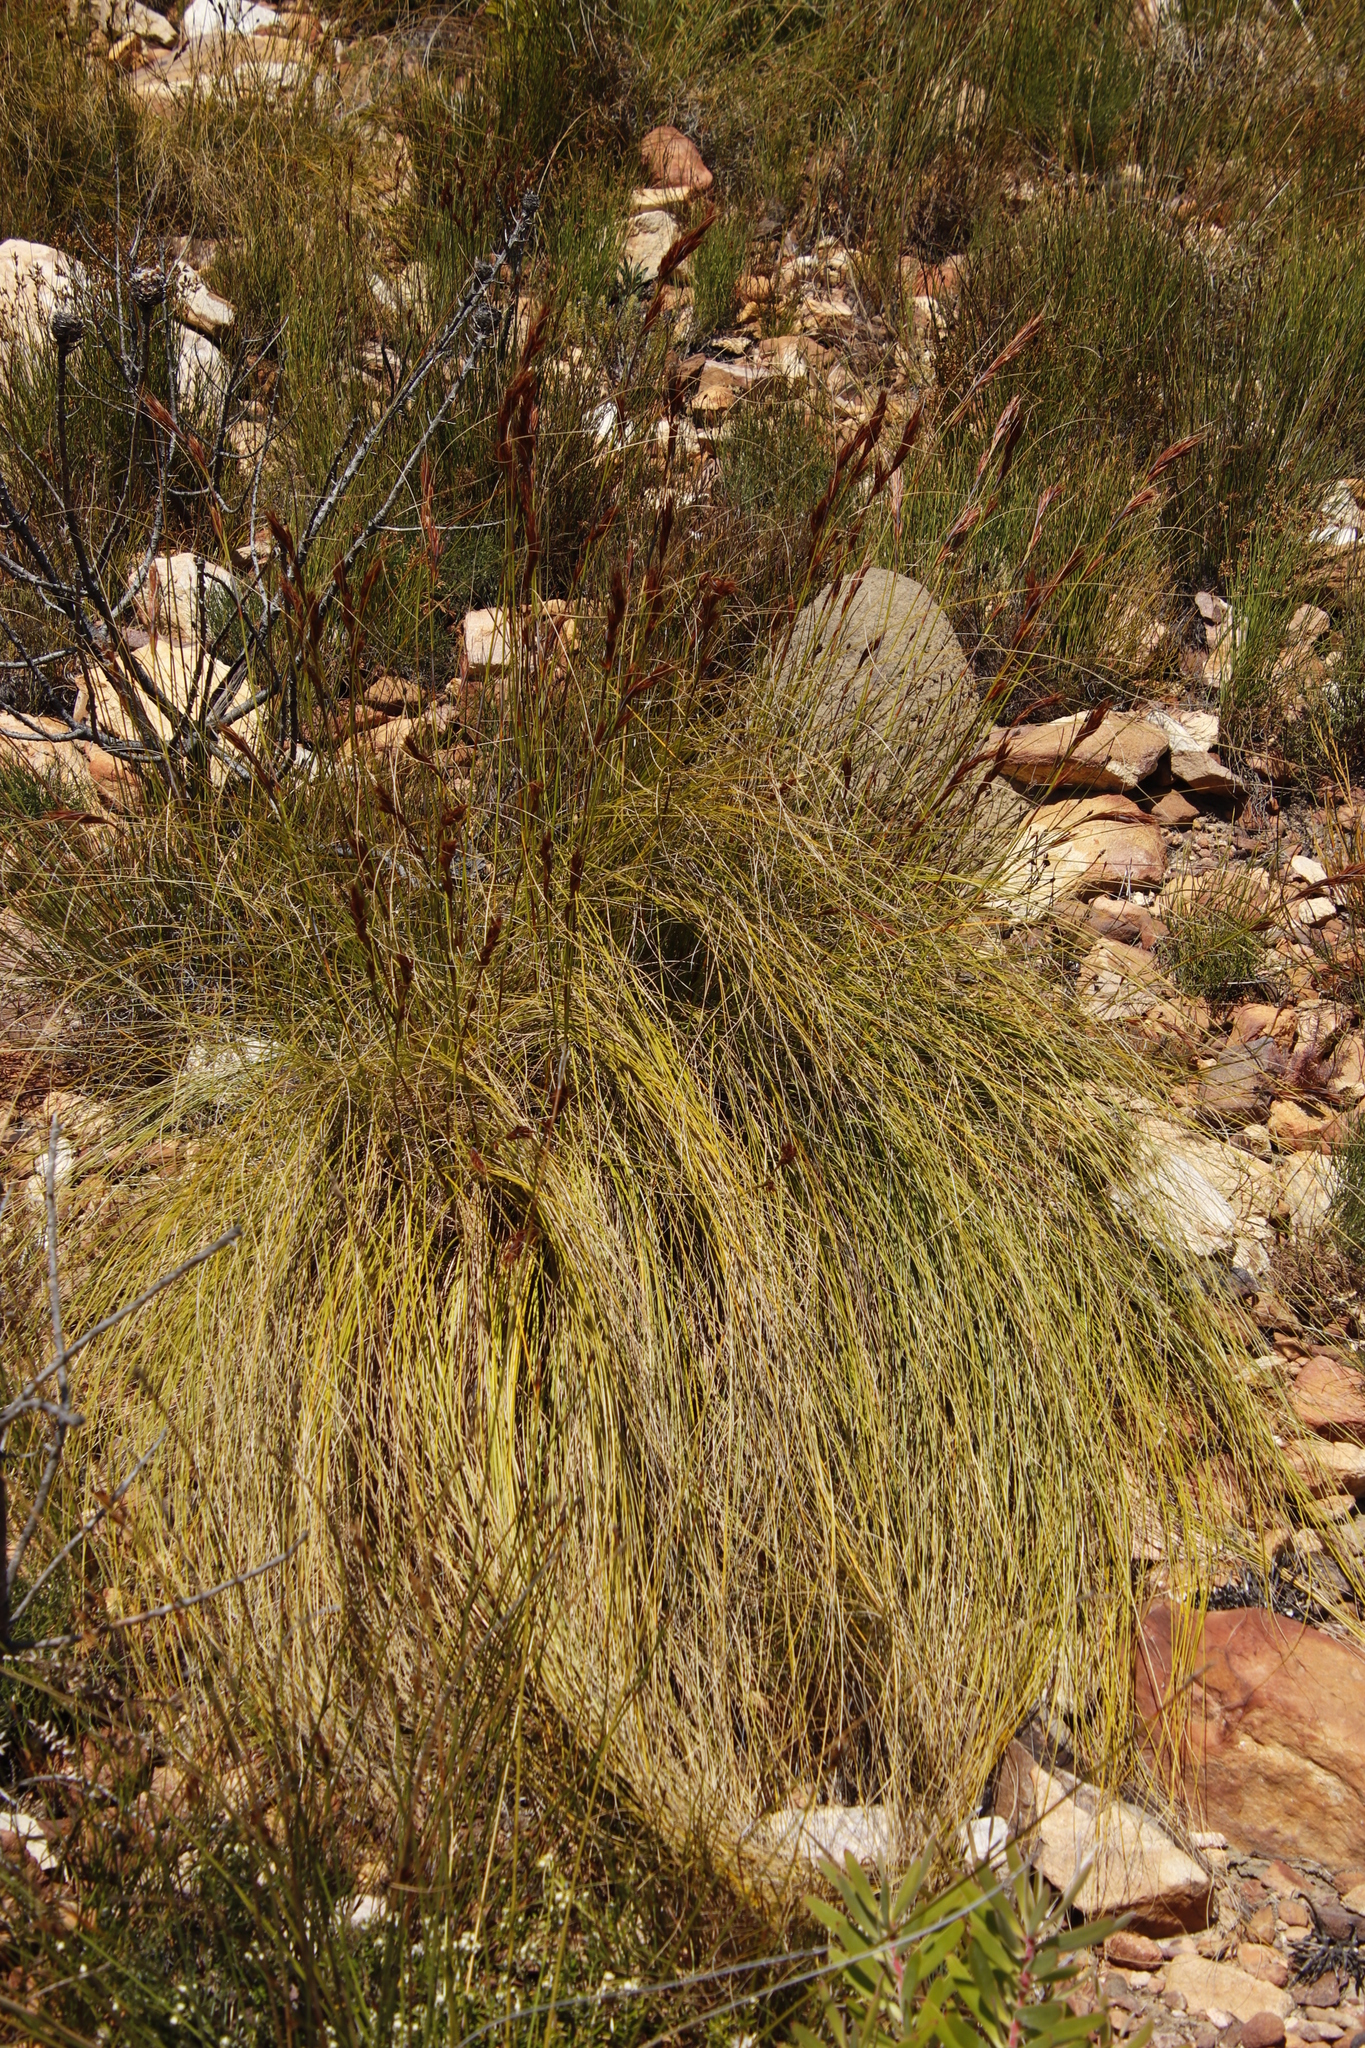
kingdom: Plantae
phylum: Tracheophyta
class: Liliopsida
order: Poales
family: Cyperaceae
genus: Tetraria
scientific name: Tetraria ustulata
